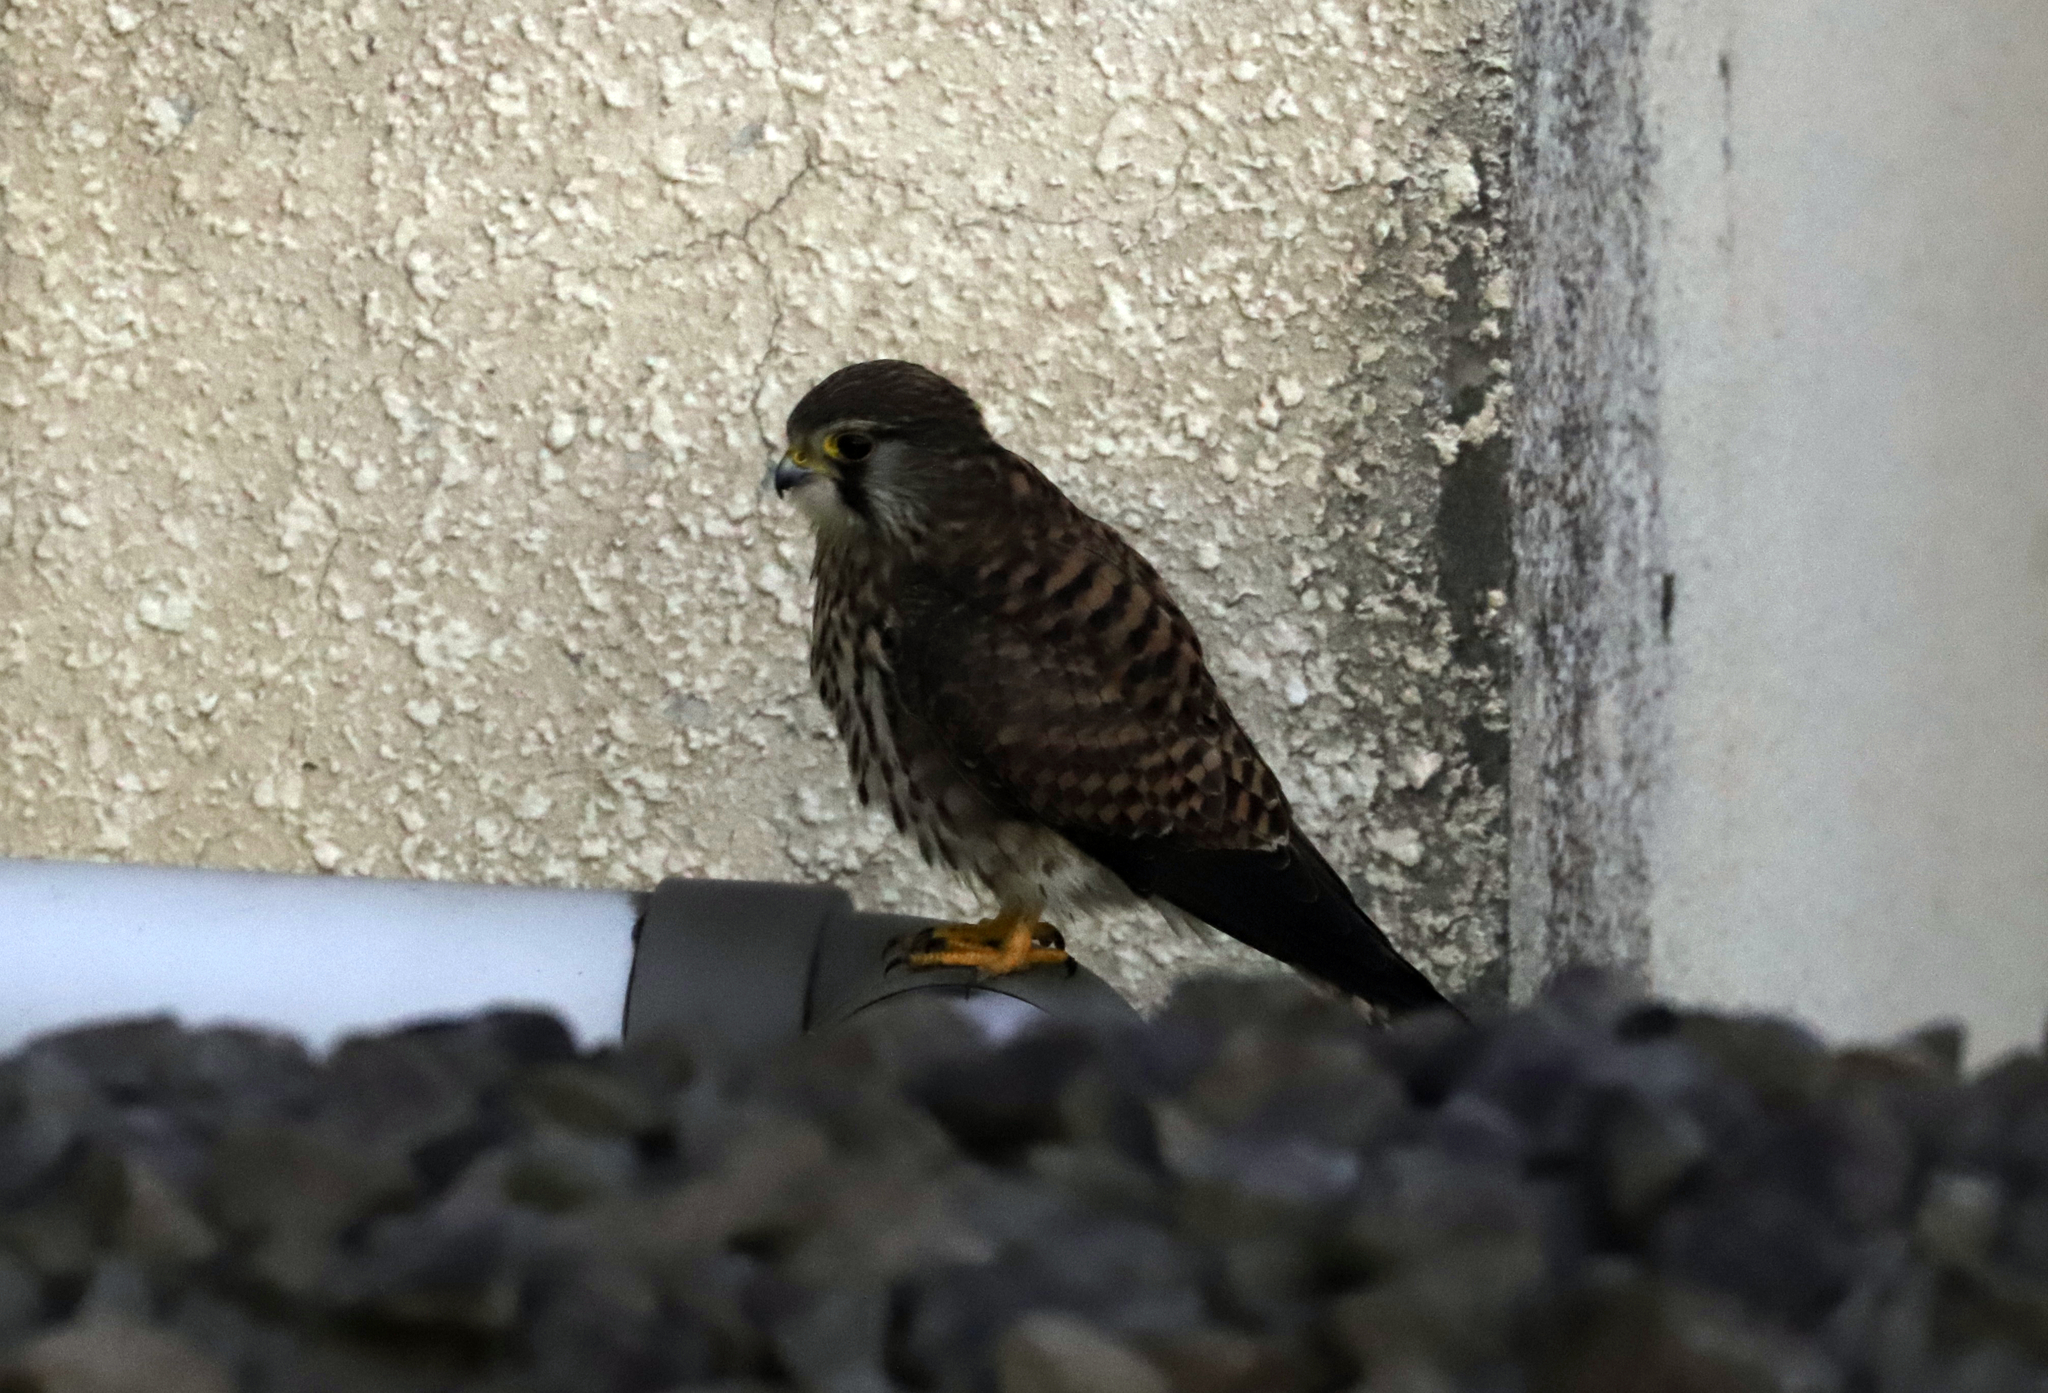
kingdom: Animalia
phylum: Chordata
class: Aves
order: Falconiformes
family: Falconidae
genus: Falco
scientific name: Falco tinnunculus
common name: Common kestrel
